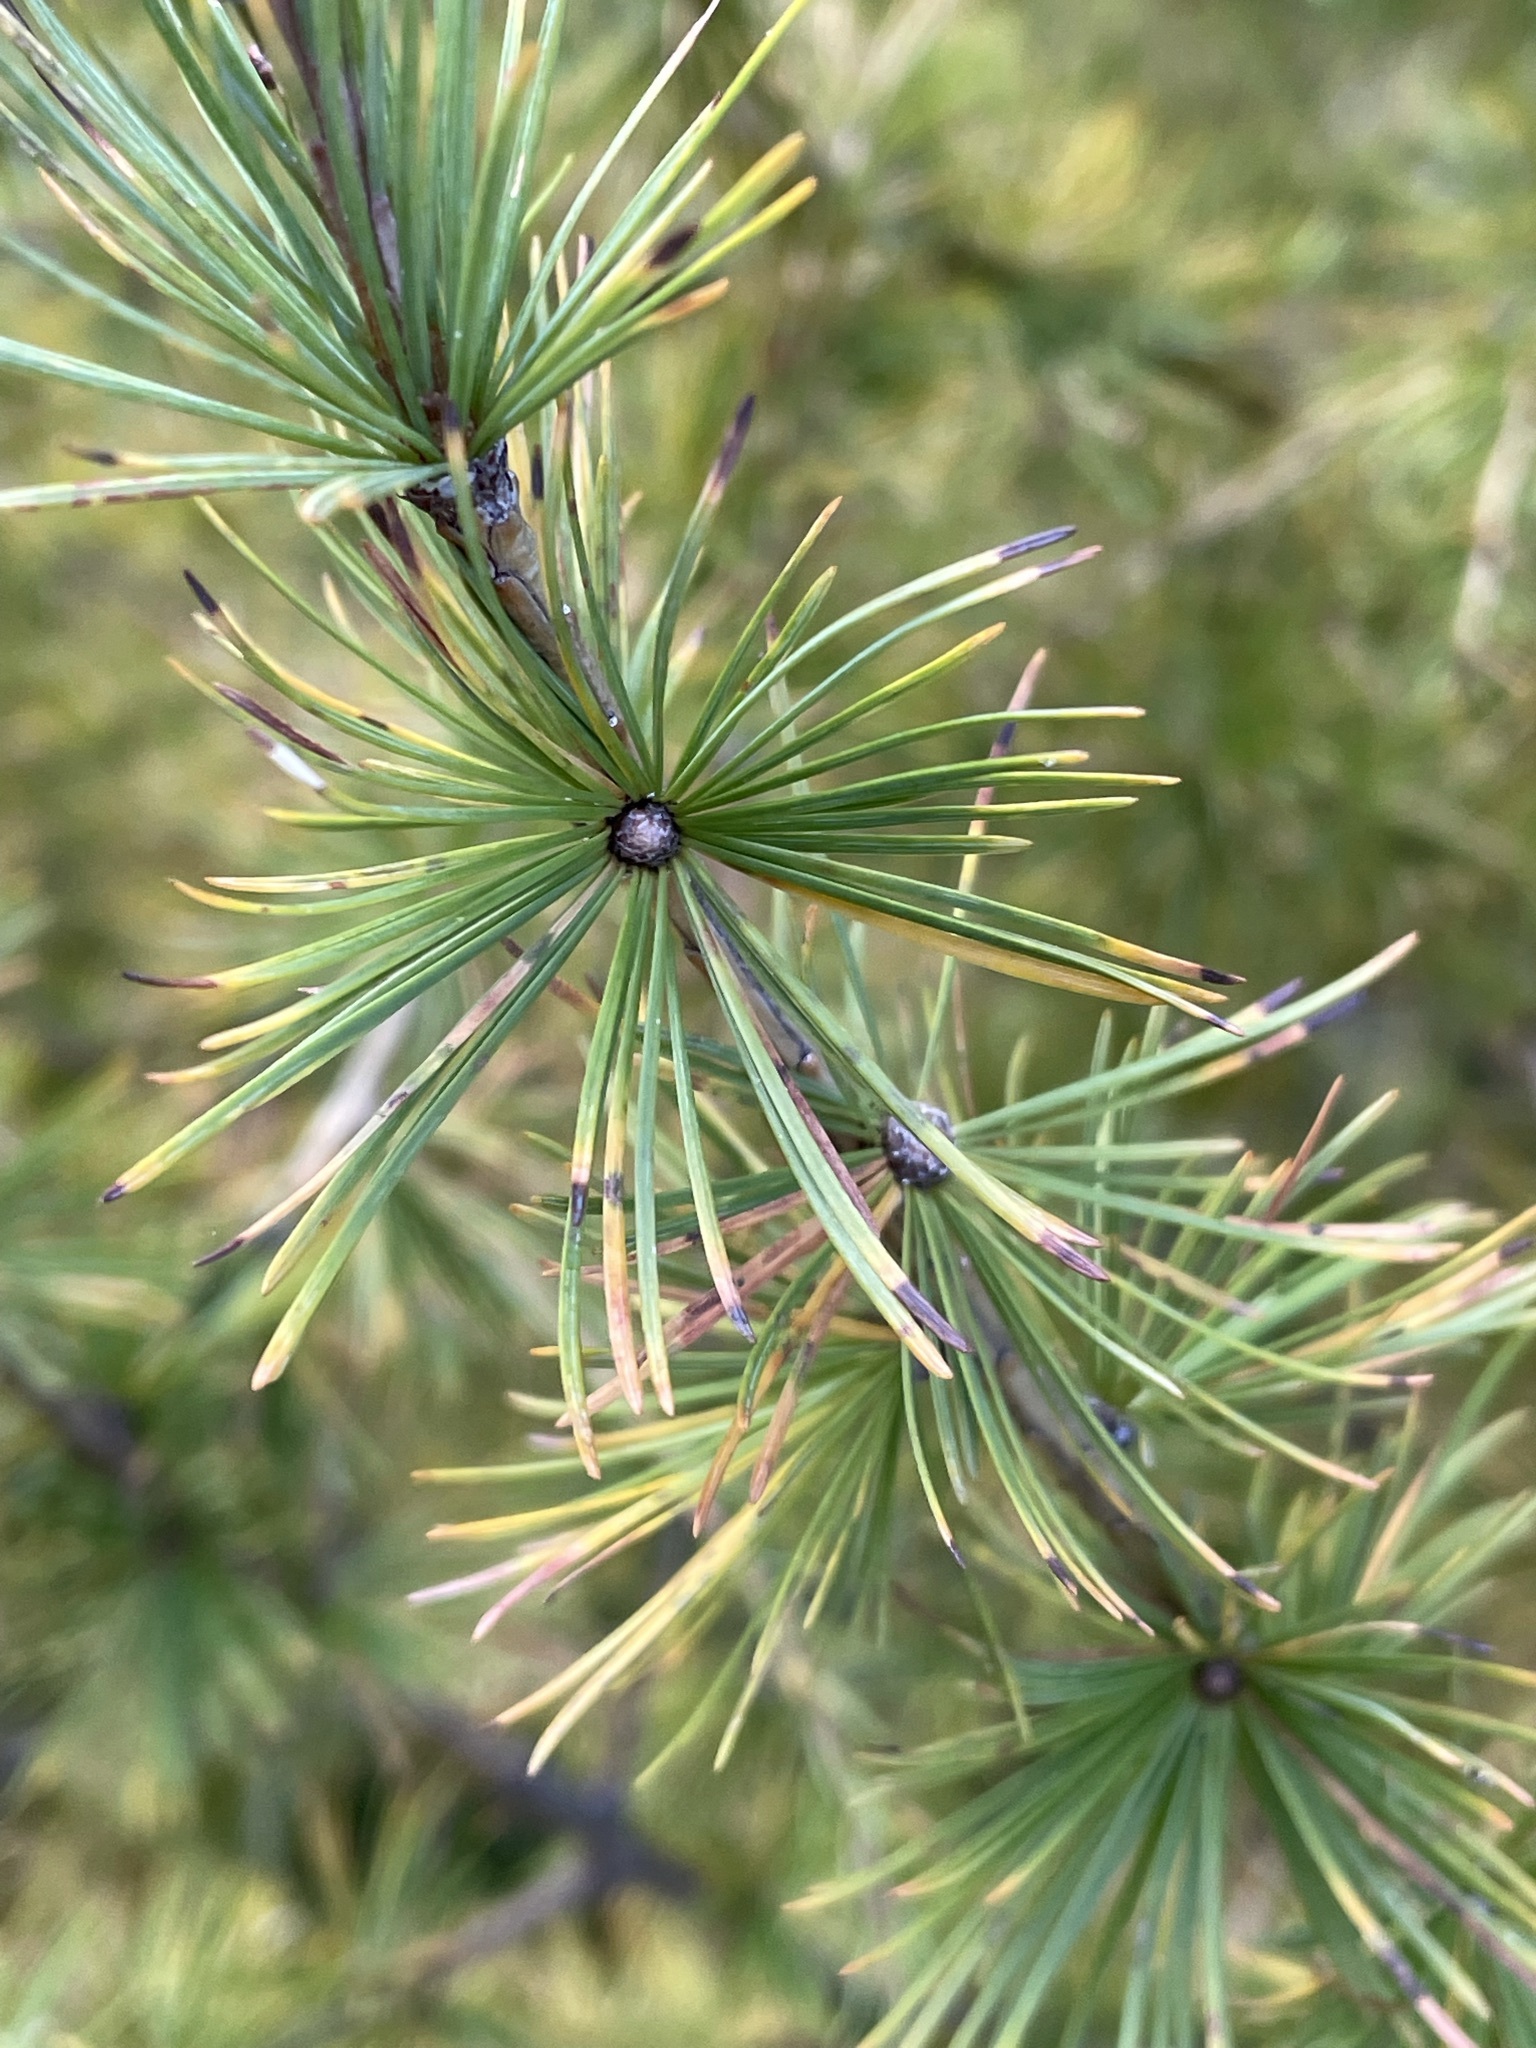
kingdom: Plantae
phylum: Tracheophyta
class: Pinopsida
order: Pinales
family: Pinaceae
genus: Larix
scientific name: Larix decidua
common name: European larch
